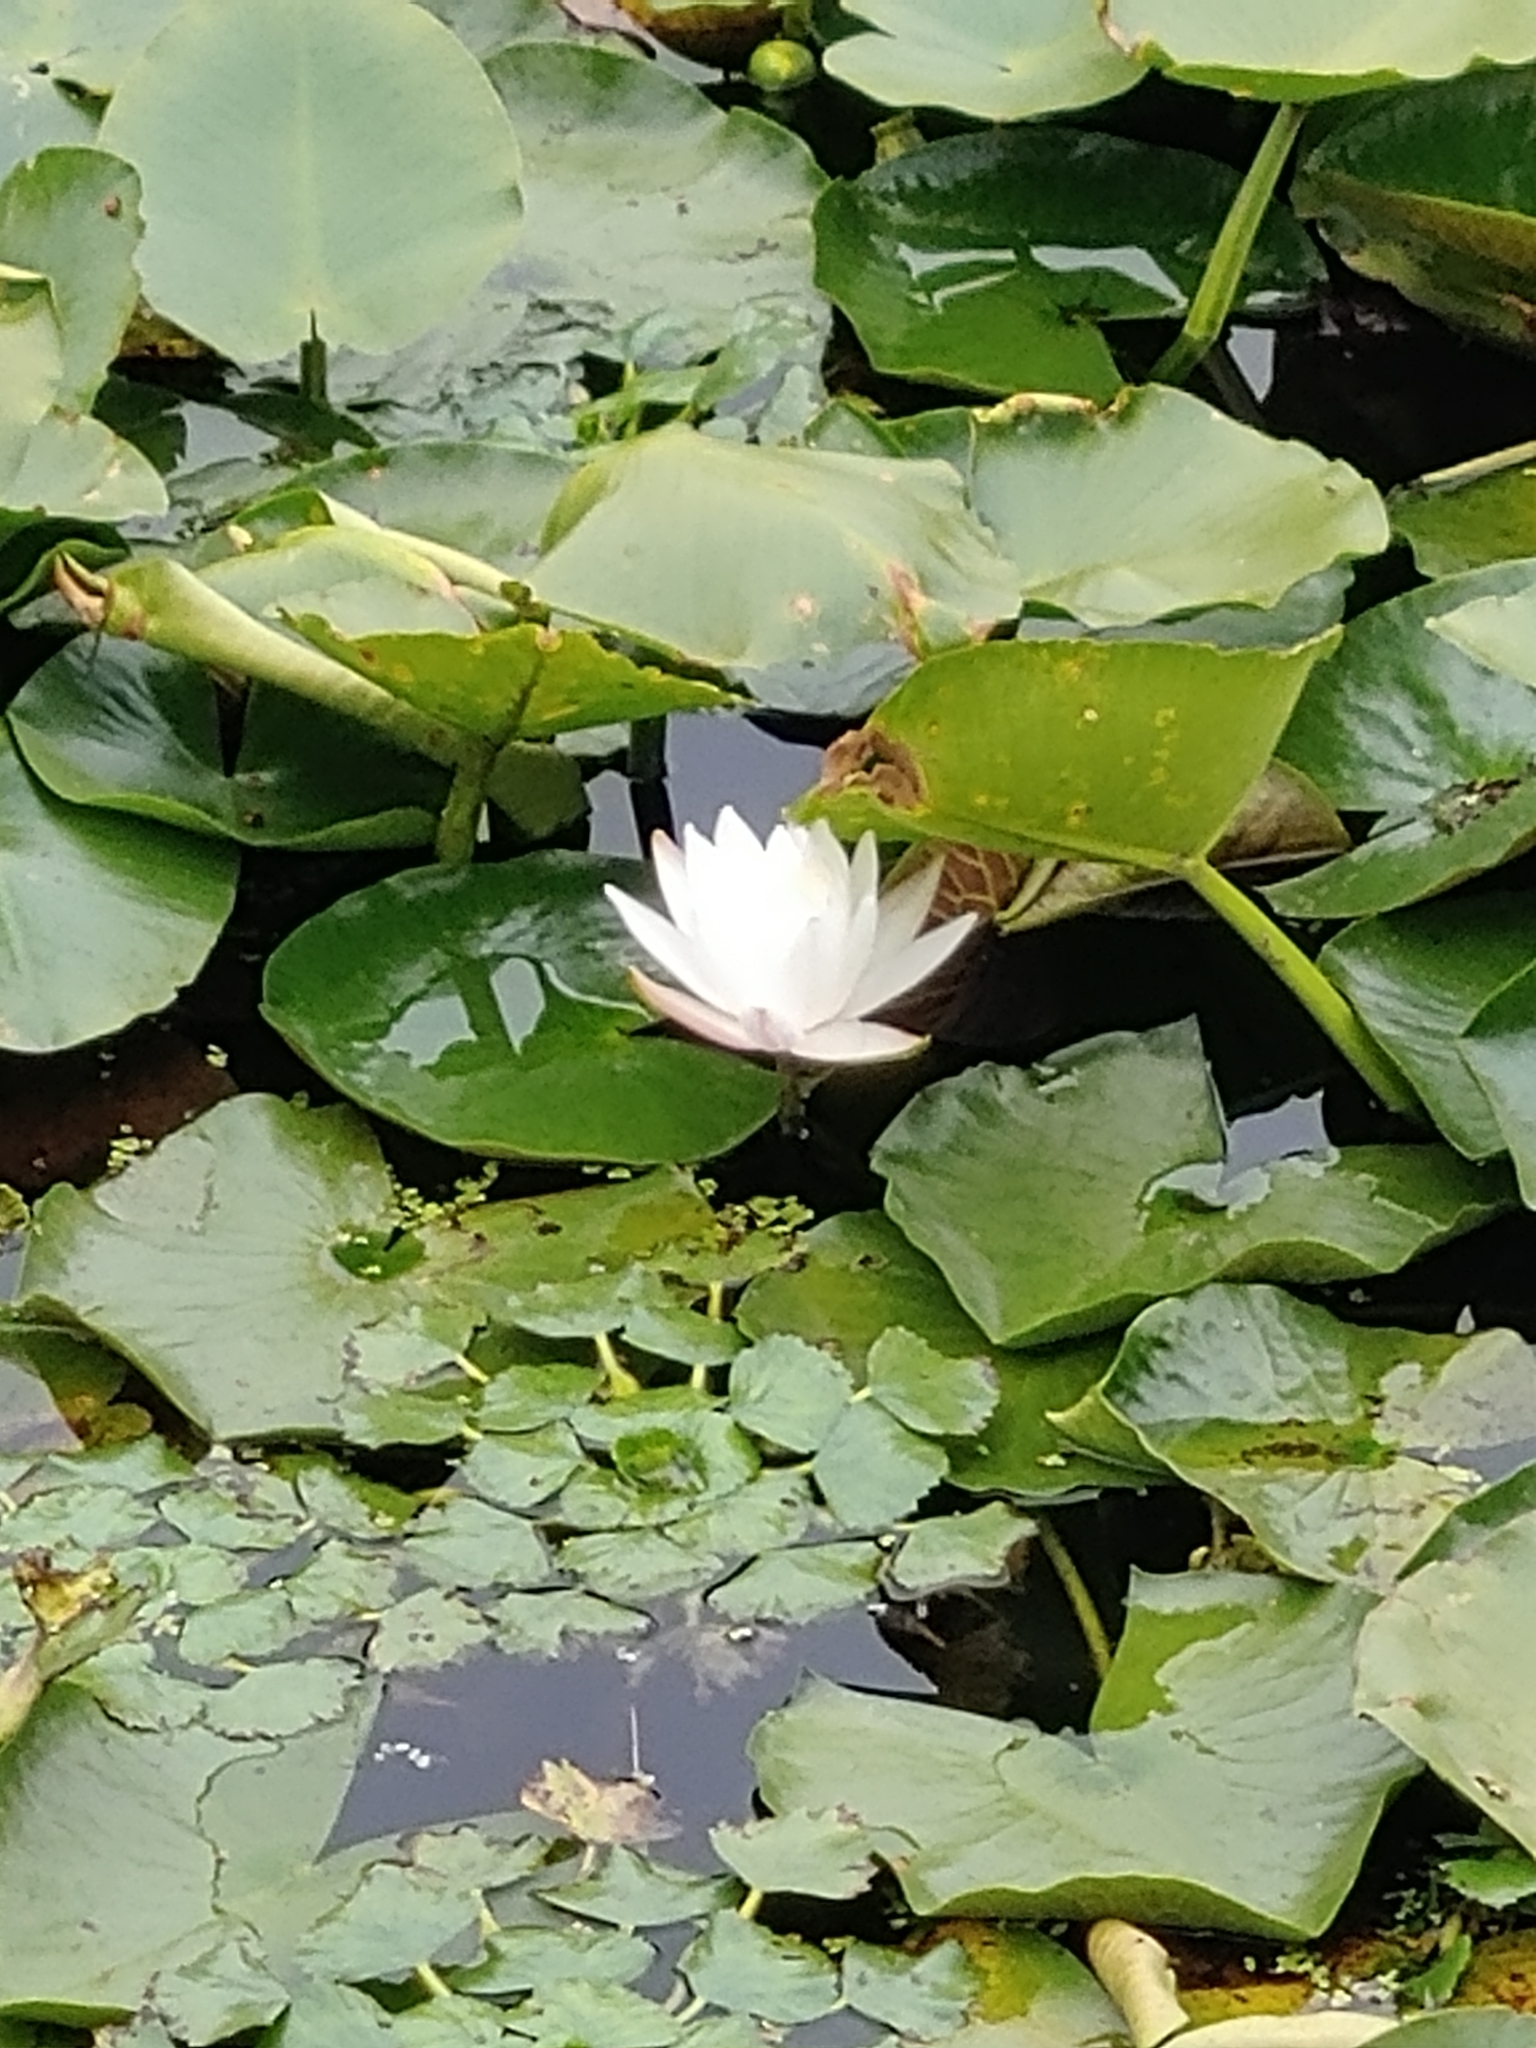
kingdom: Plantae
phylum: Tracheophyta
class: Magnoliopsida
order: Nymphaeales
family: Nymphaeaceae
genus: Nymphaea
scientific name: Nymphaea odorata
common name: Fragrant water-lily
